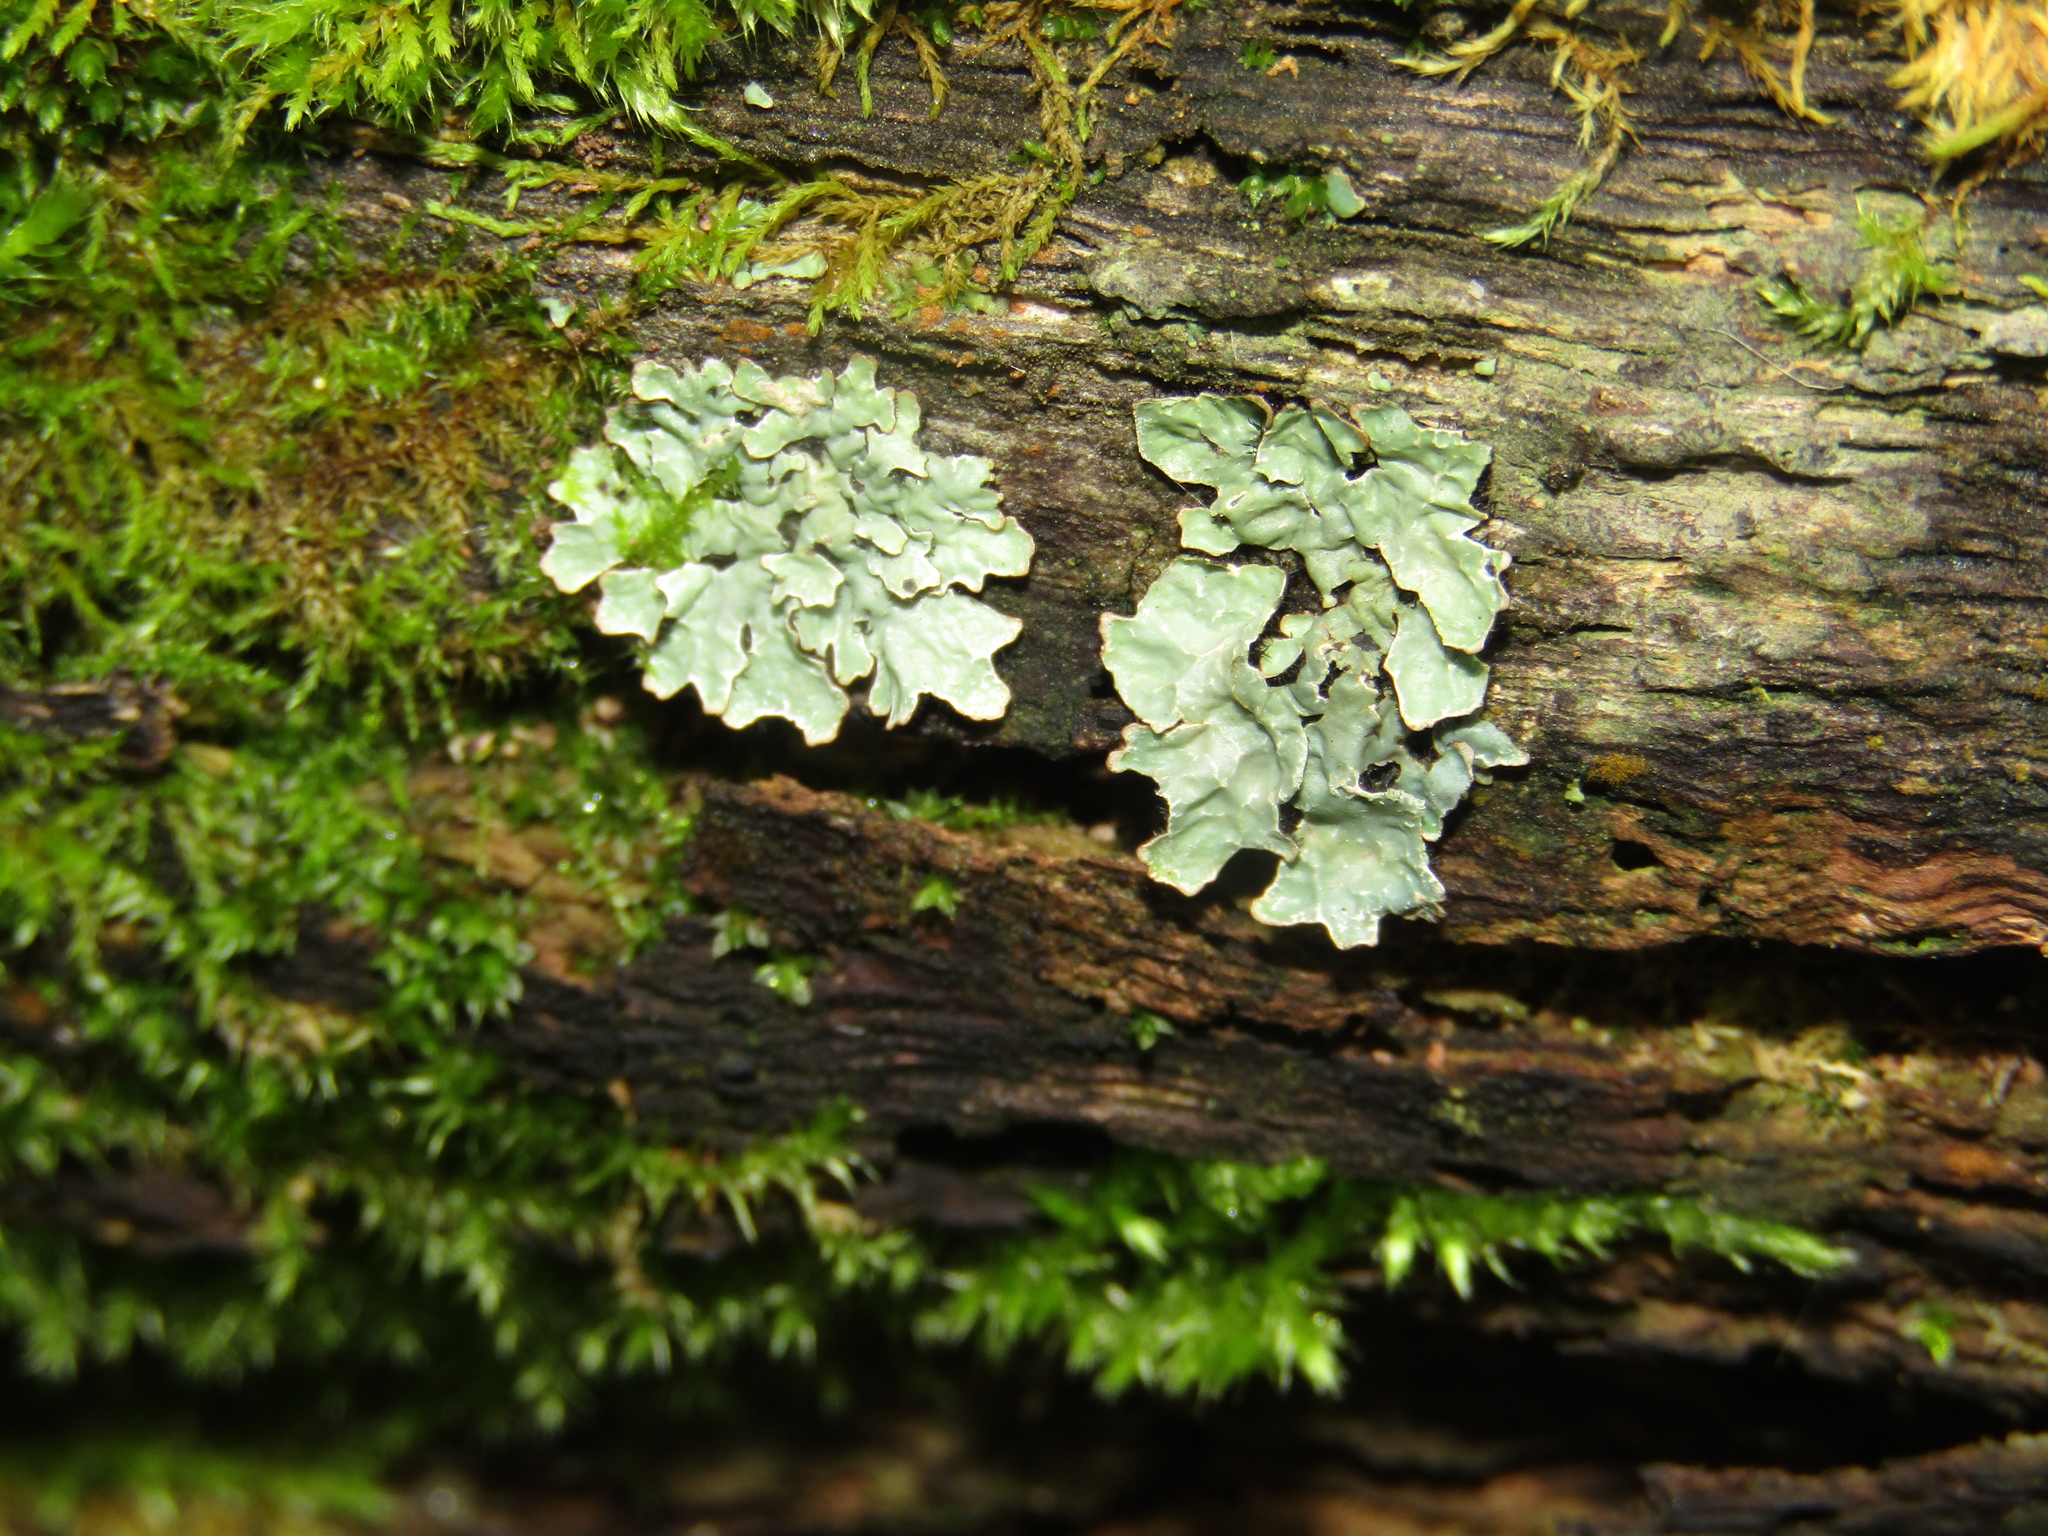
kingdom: Fungi
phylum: Ascomycota
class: Lecanoromycetes
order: Lecanorales
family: Parmeliaceae
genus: Parmelia
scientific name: Parmelia sulcata
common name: Netted shield lichen
